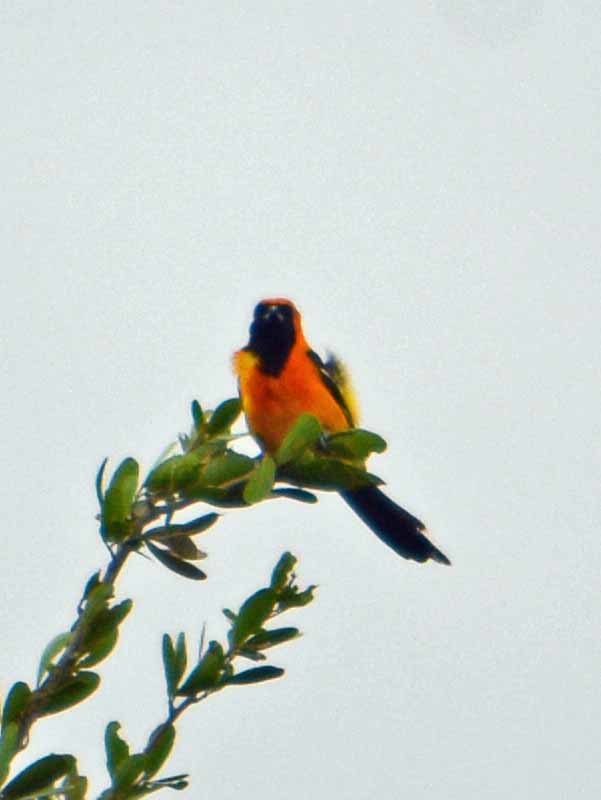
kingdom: Animalia
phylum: Chordata
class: Aves
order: Passeriformes
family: Icteridae
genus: Icterus
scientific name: Icterus cucullatus
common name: Hooded oriole
